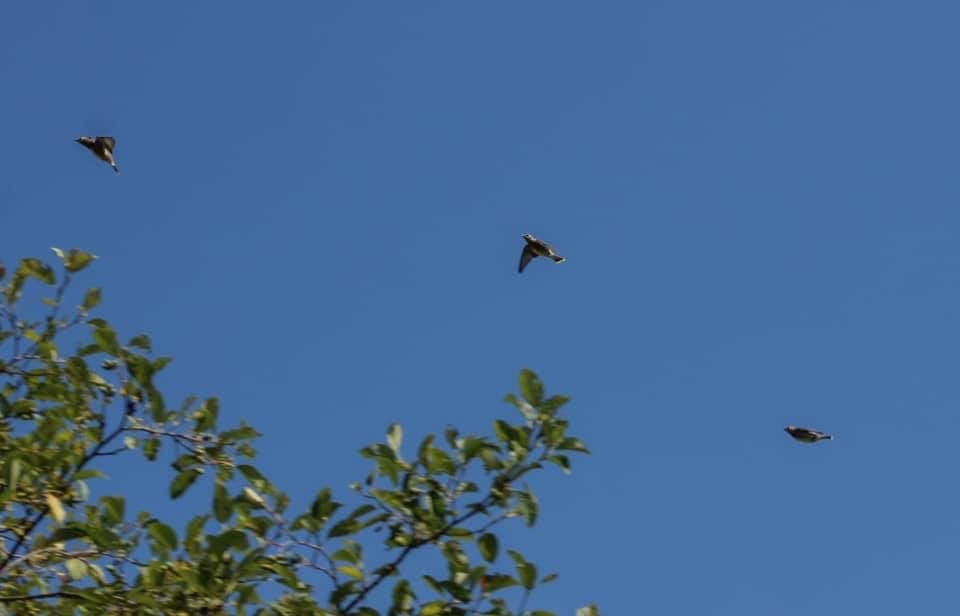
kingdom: Animalia
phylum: Chordata
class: Aves
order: Passeriformes
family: Bombycillidae
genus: Bombycilla
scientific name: Bombycilla cedrorum
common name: Cedar waxwing
